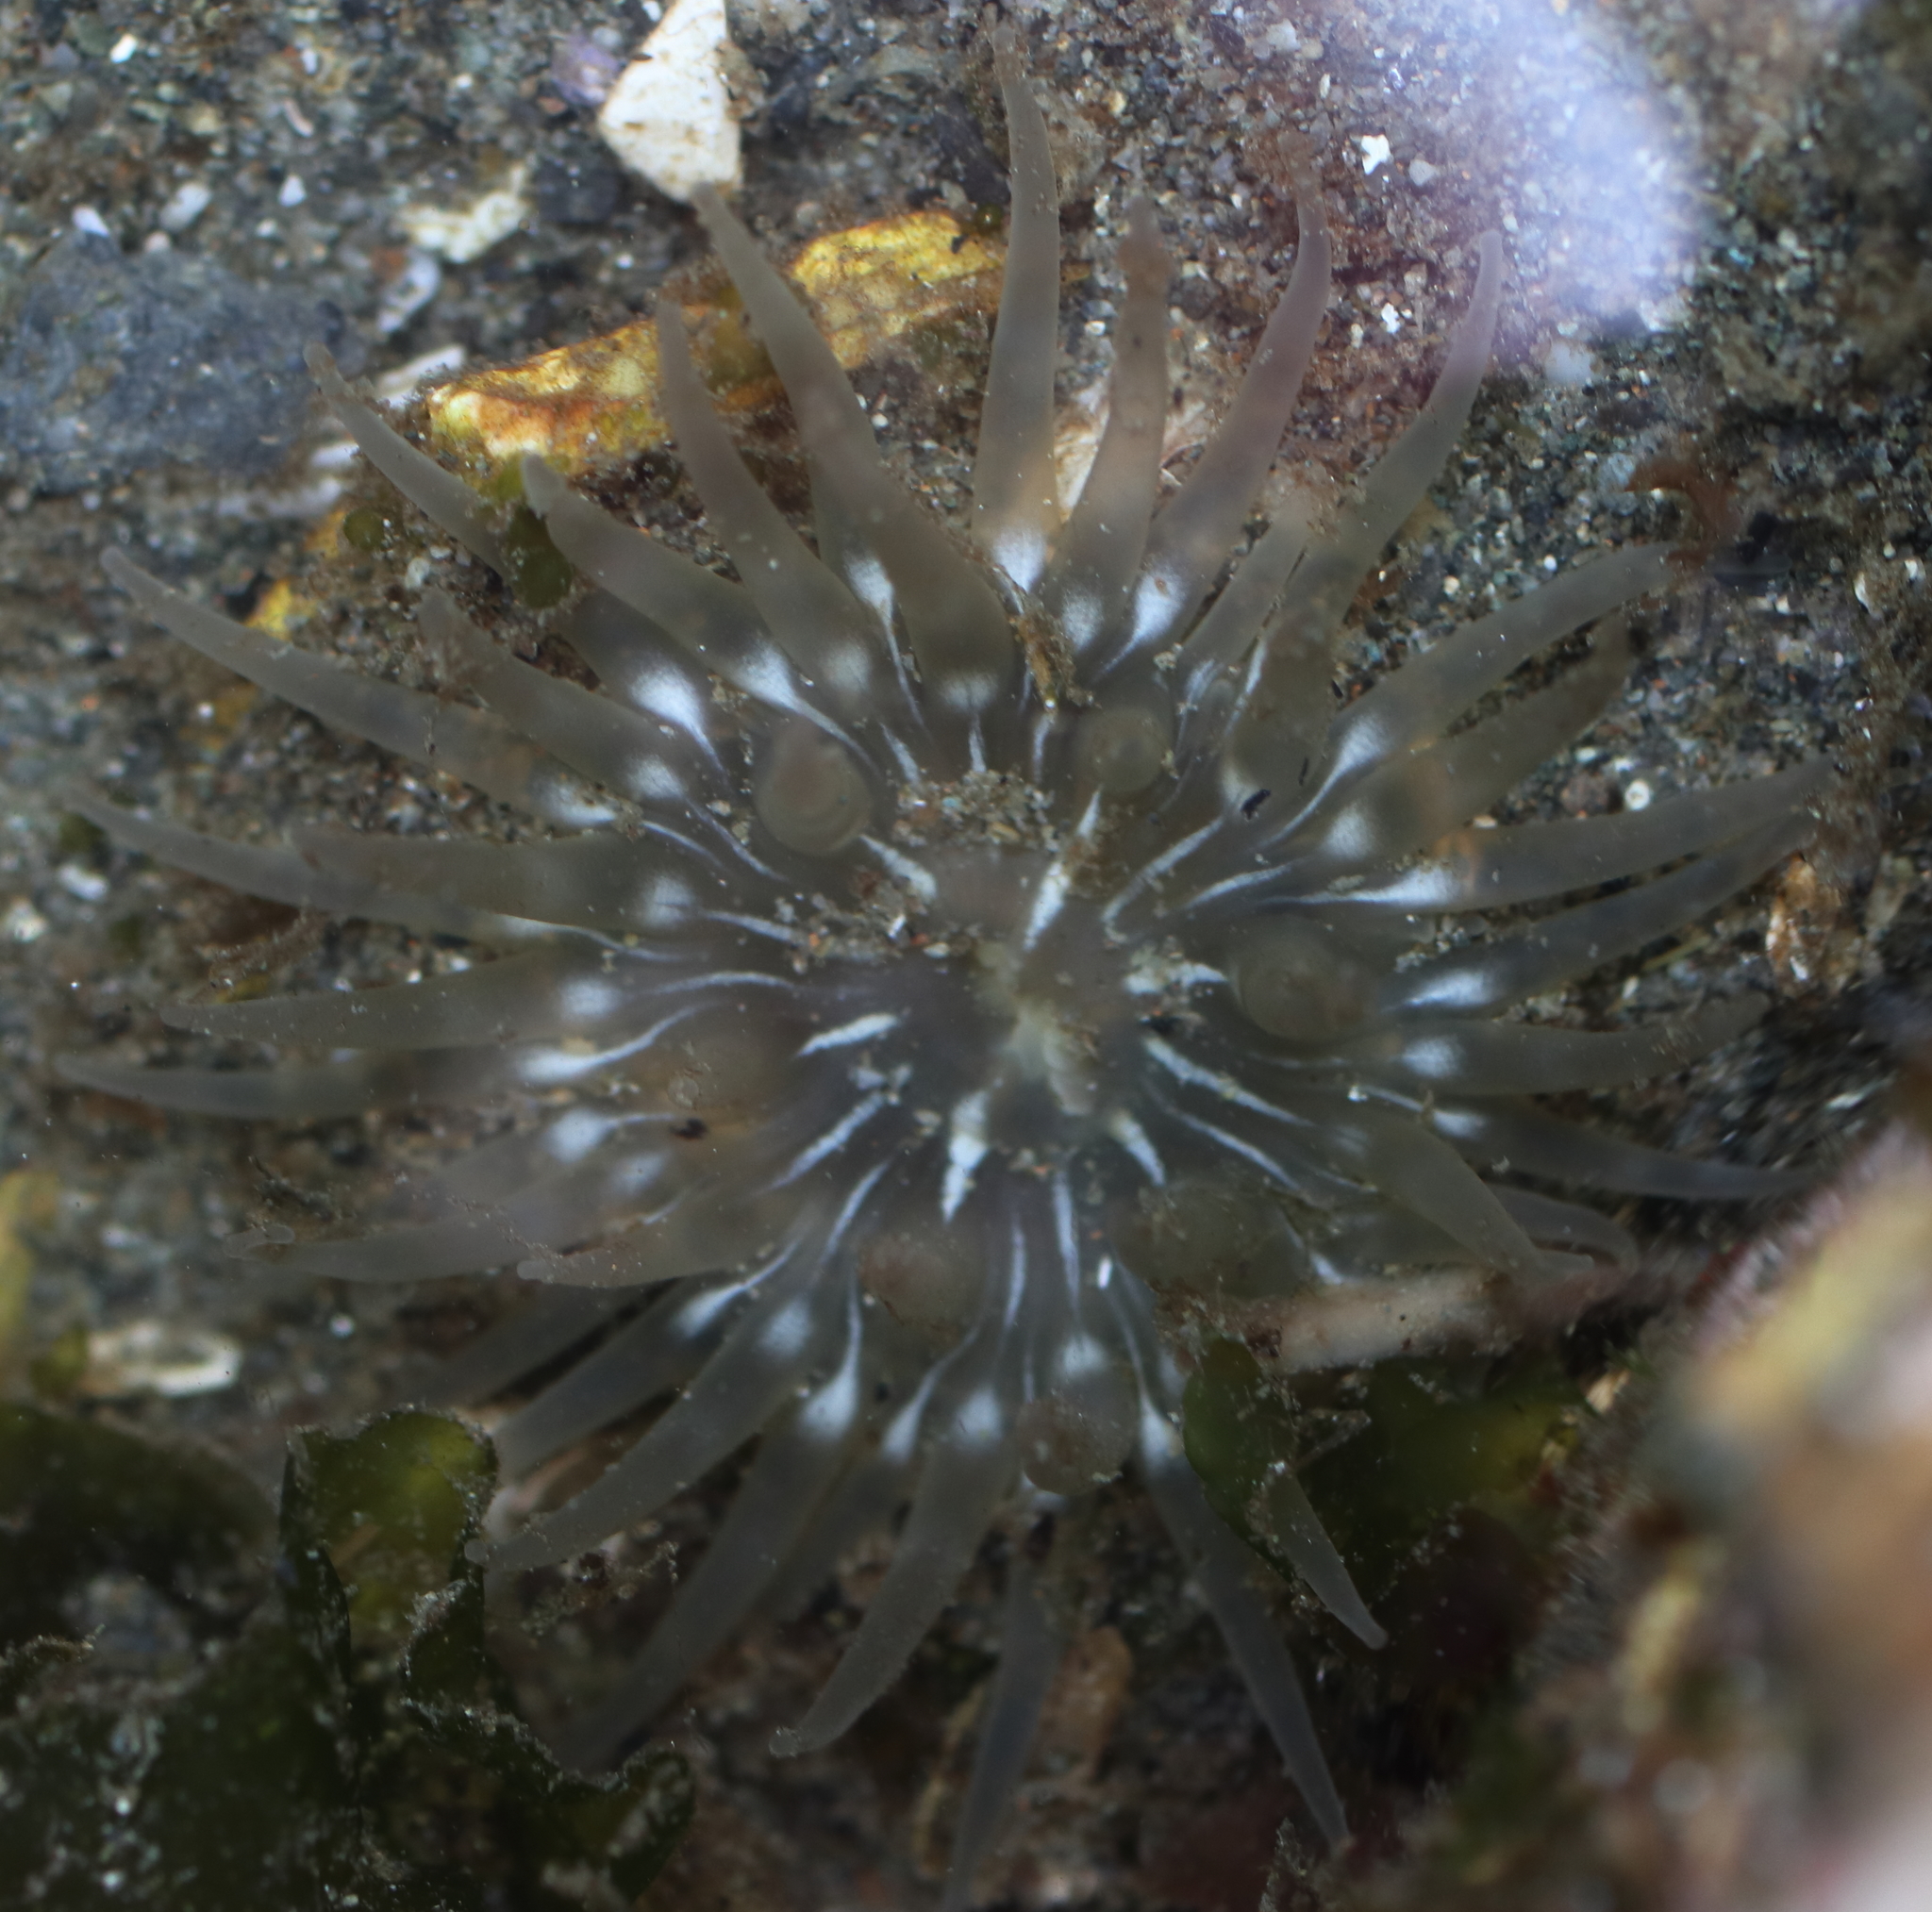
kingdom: Animalia
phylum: Cnidaria
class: Anthozoa
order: Actiniaria
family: Actiniidae
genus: Aulactinia
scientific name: Aulactinia incubans
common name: Incubating anemone
